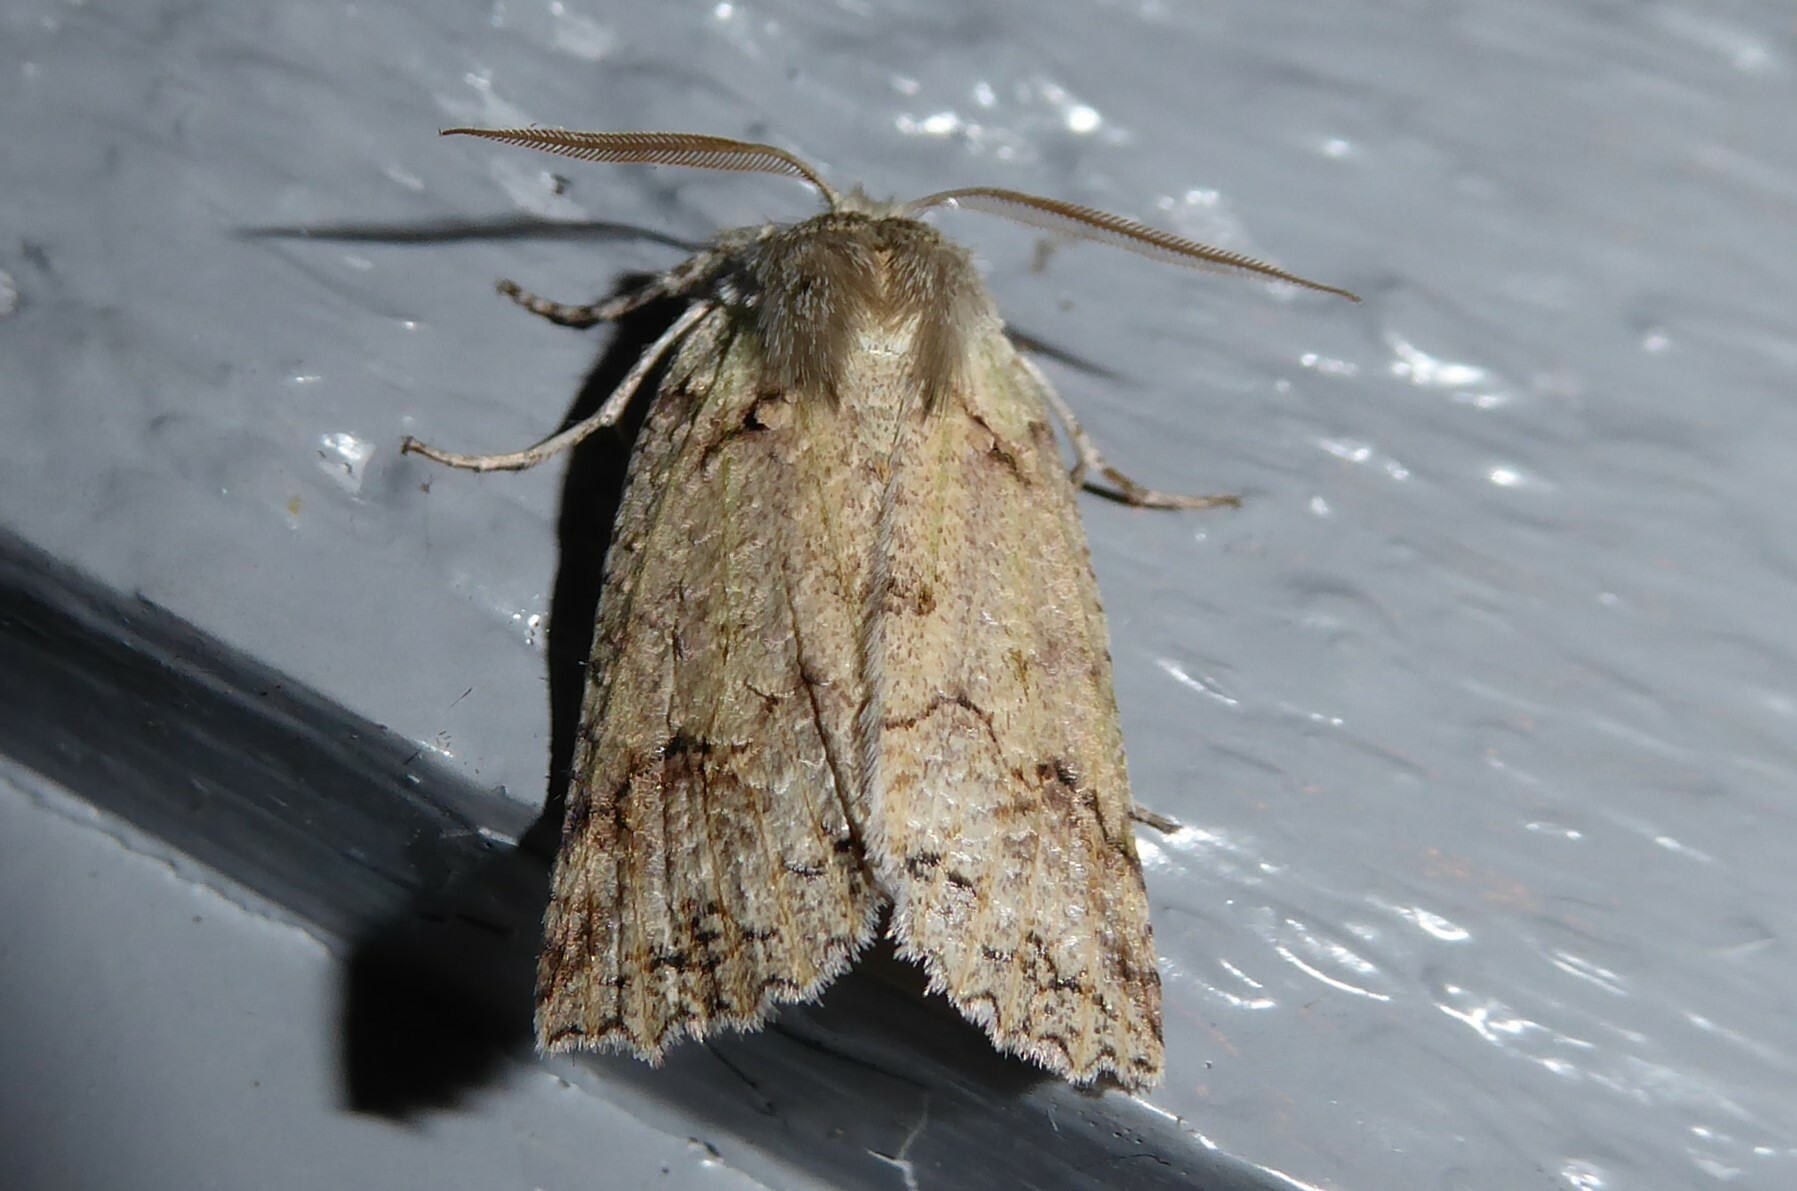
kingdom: Animalia
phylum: Arthropoda
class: Insecta
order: Lepidoptera
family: Geometridae
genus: Declana
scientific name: Declana floccosa
